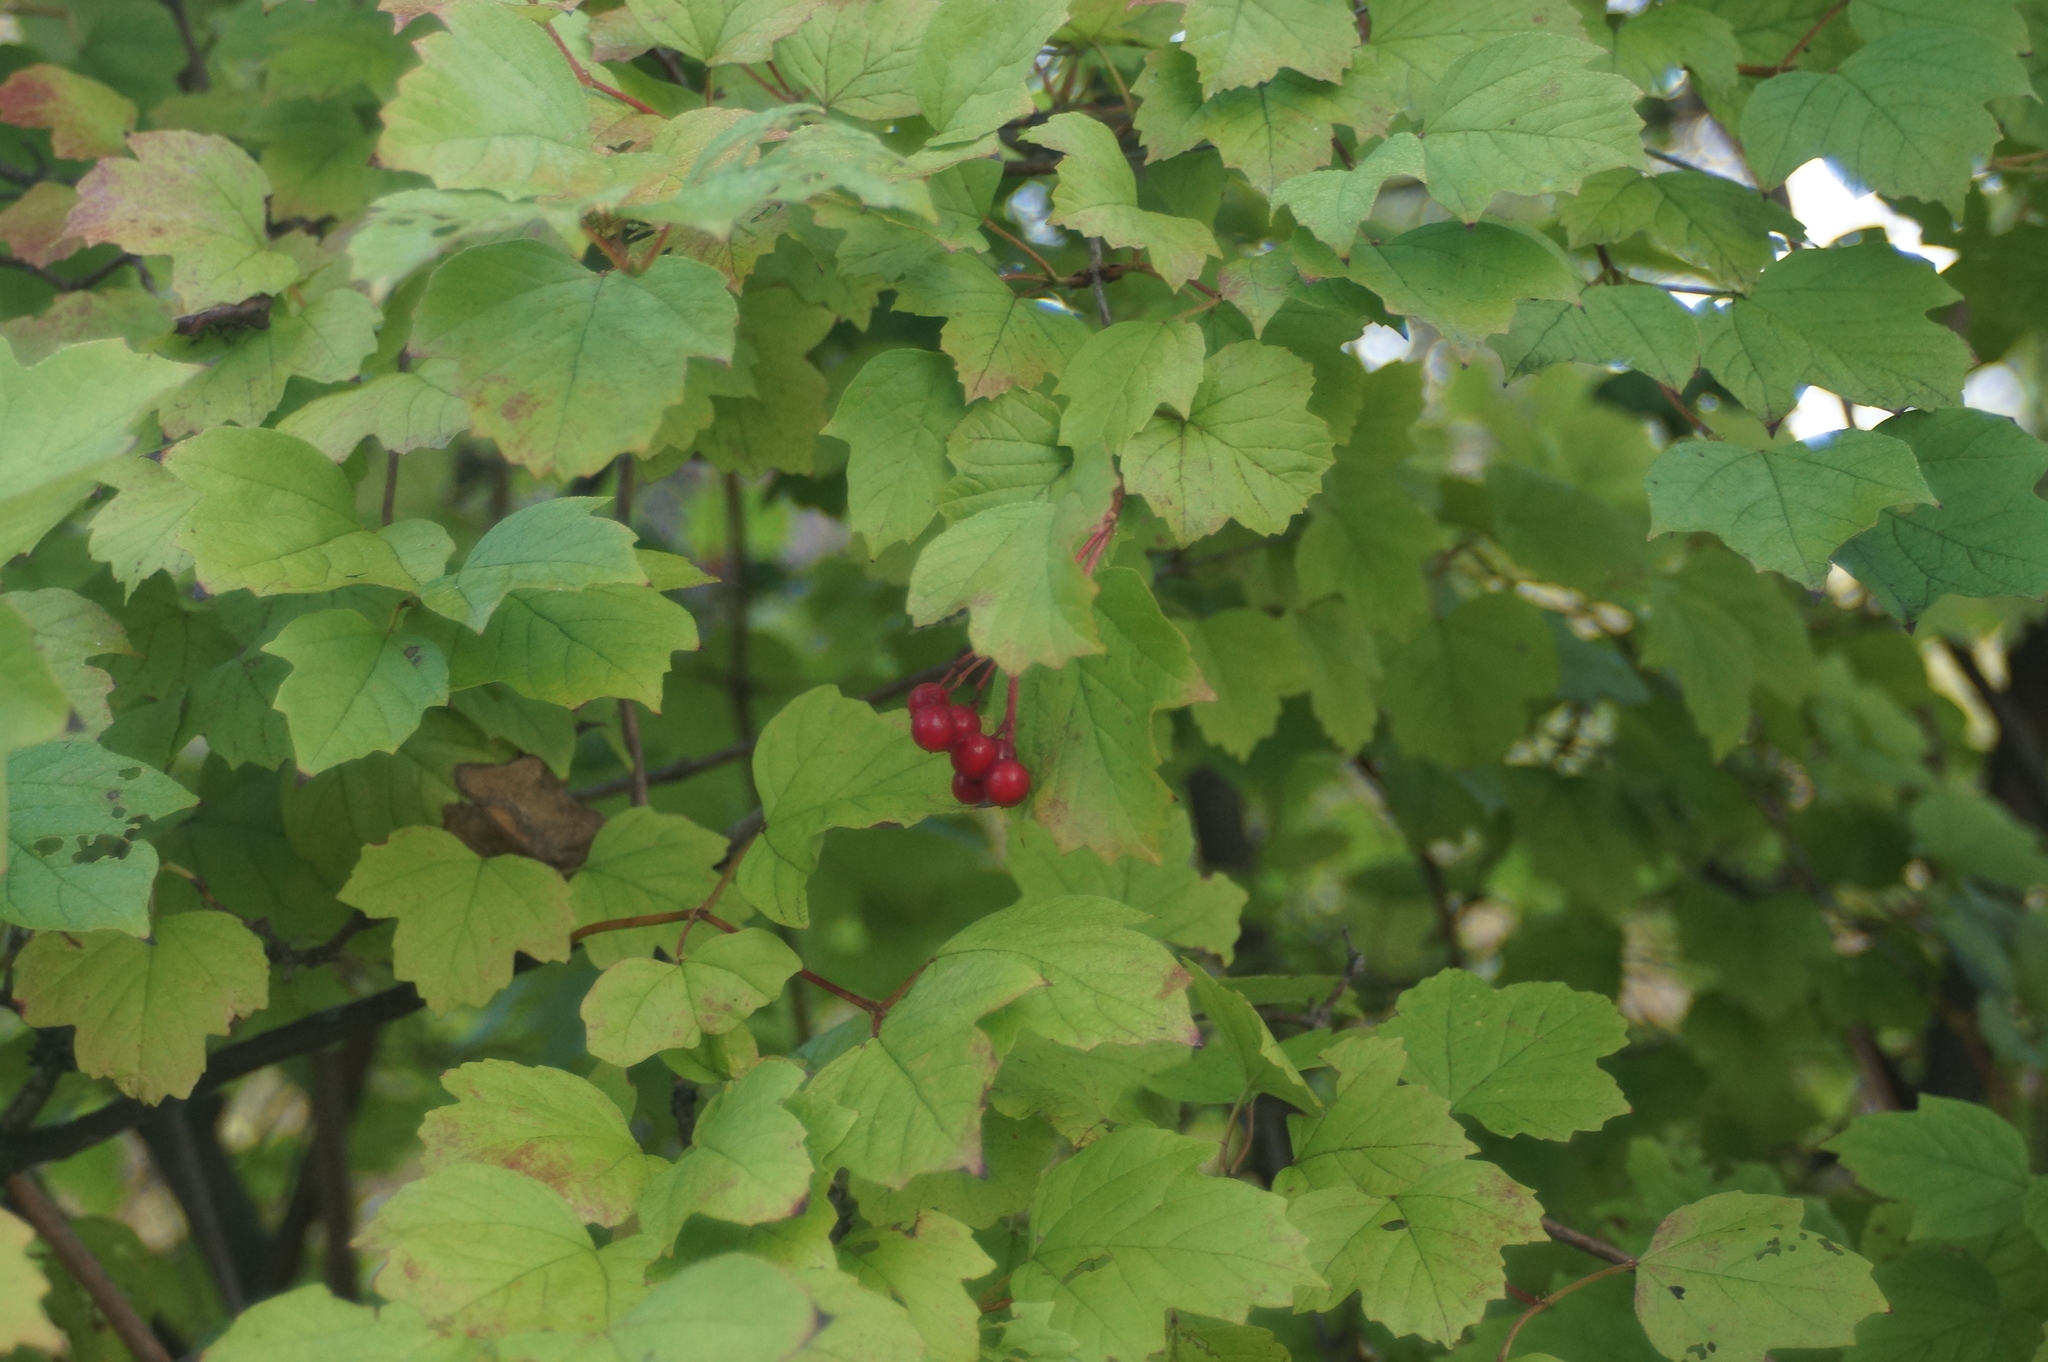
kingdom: Plantae
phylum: Tracheophyta
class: Magnoliopsida
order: Dipsacales
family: Viburnaceae
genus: Viburnum
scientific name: Viburnum opulus
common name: Guelder-rose
